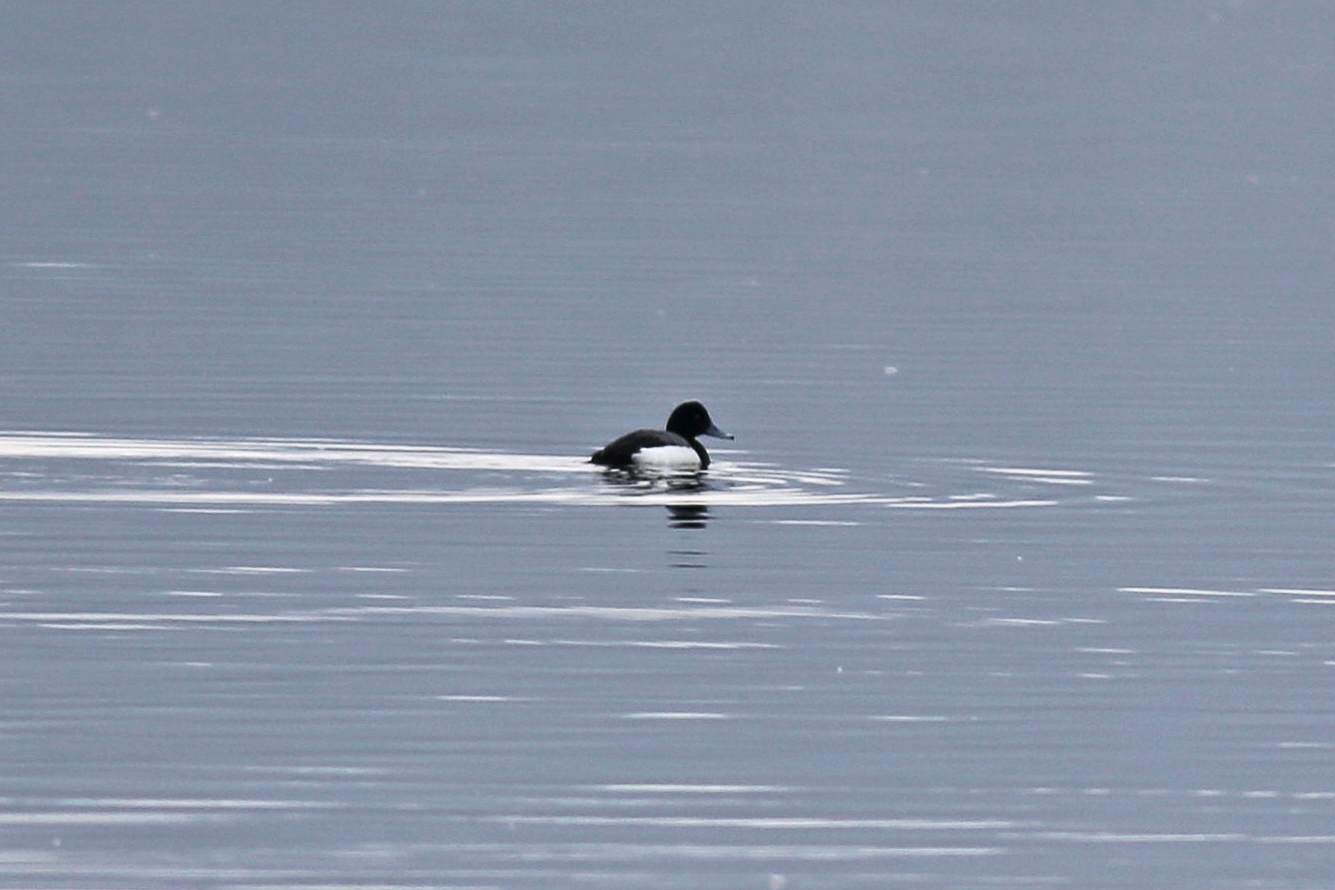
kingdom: Animalia
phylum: Chordata
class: Aves
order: Anseriformes
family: Anatidae
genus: Aythya
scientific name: Aythya marila
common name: Greater scaup
